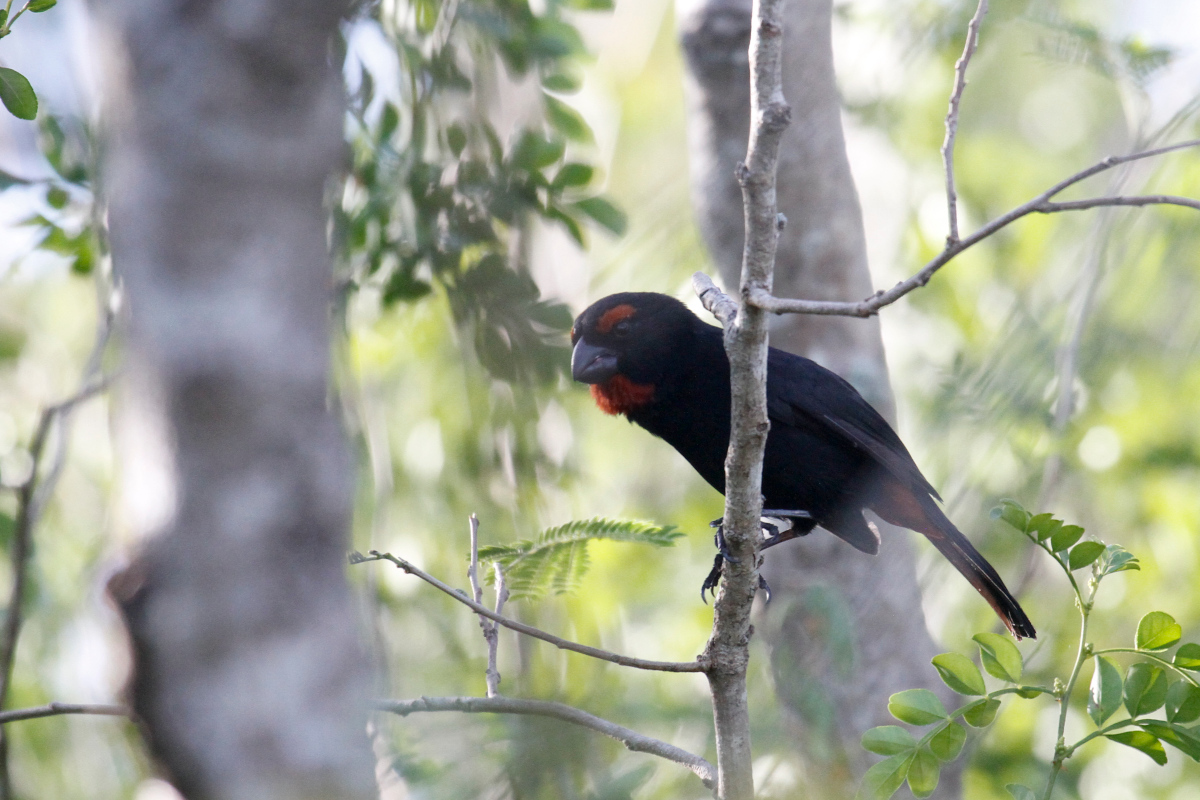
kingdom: Animalia
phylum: Chordata
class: Aves
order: Passeriformes
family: Thraupidae
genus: Melopyrrha
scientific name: Melopyrrha violacea
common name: Greater antillean bullfinch
